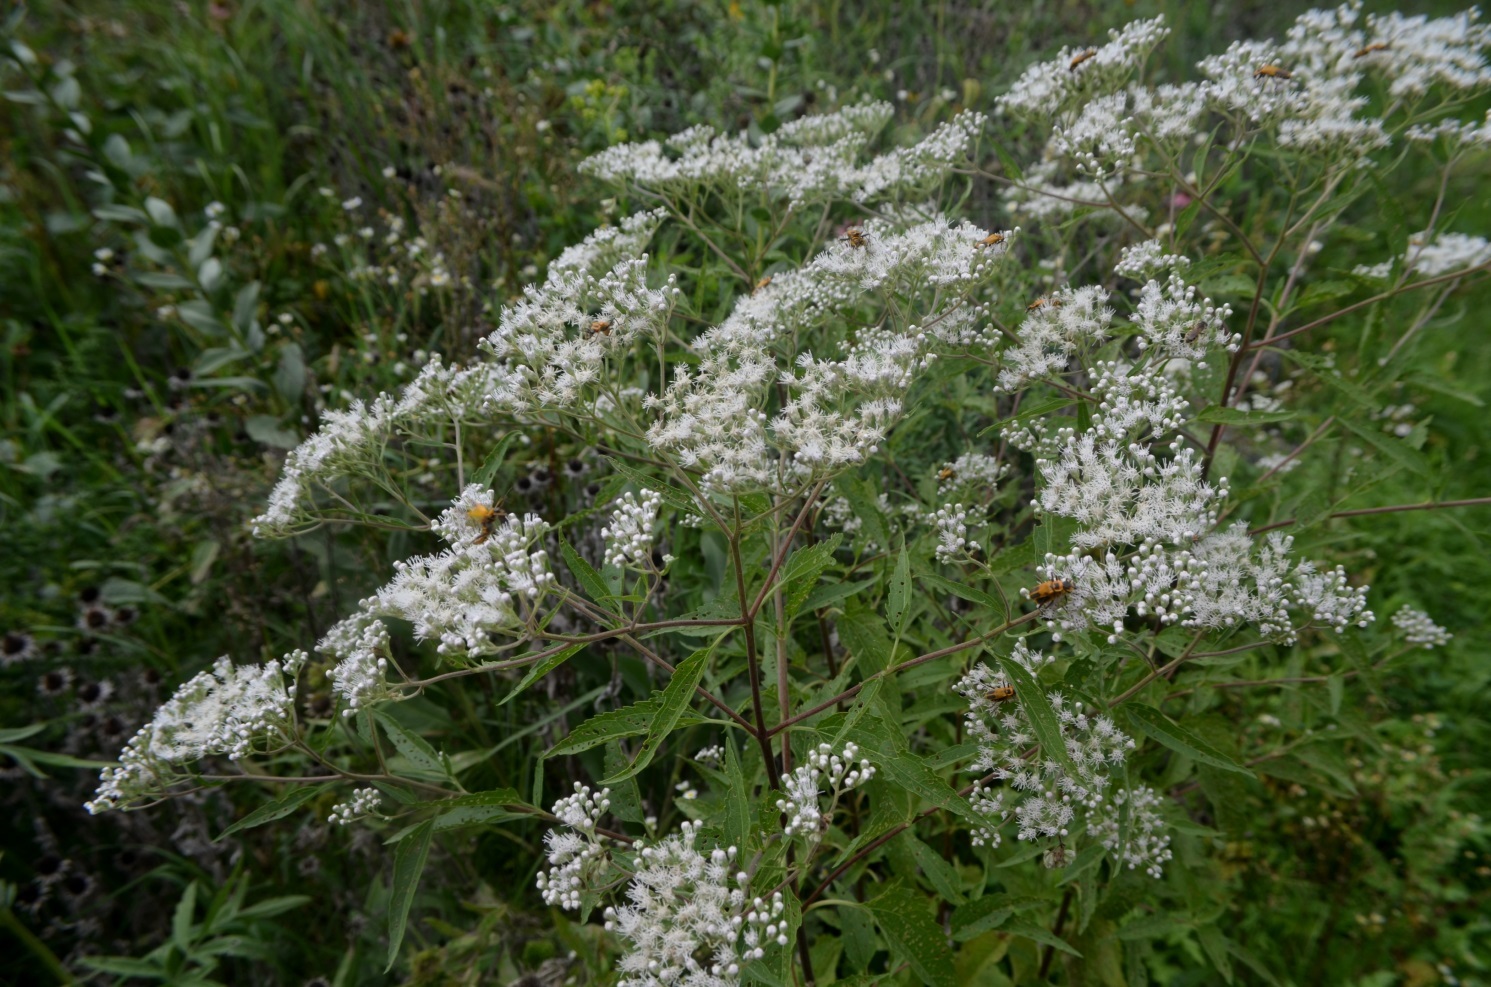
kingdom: Plantae
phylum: Tracheophyta
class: Magnoliopsida
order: Asterales
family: Asteraceae
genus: Eupatorium
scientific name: Eupatorium serotinum
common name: Late boneset
